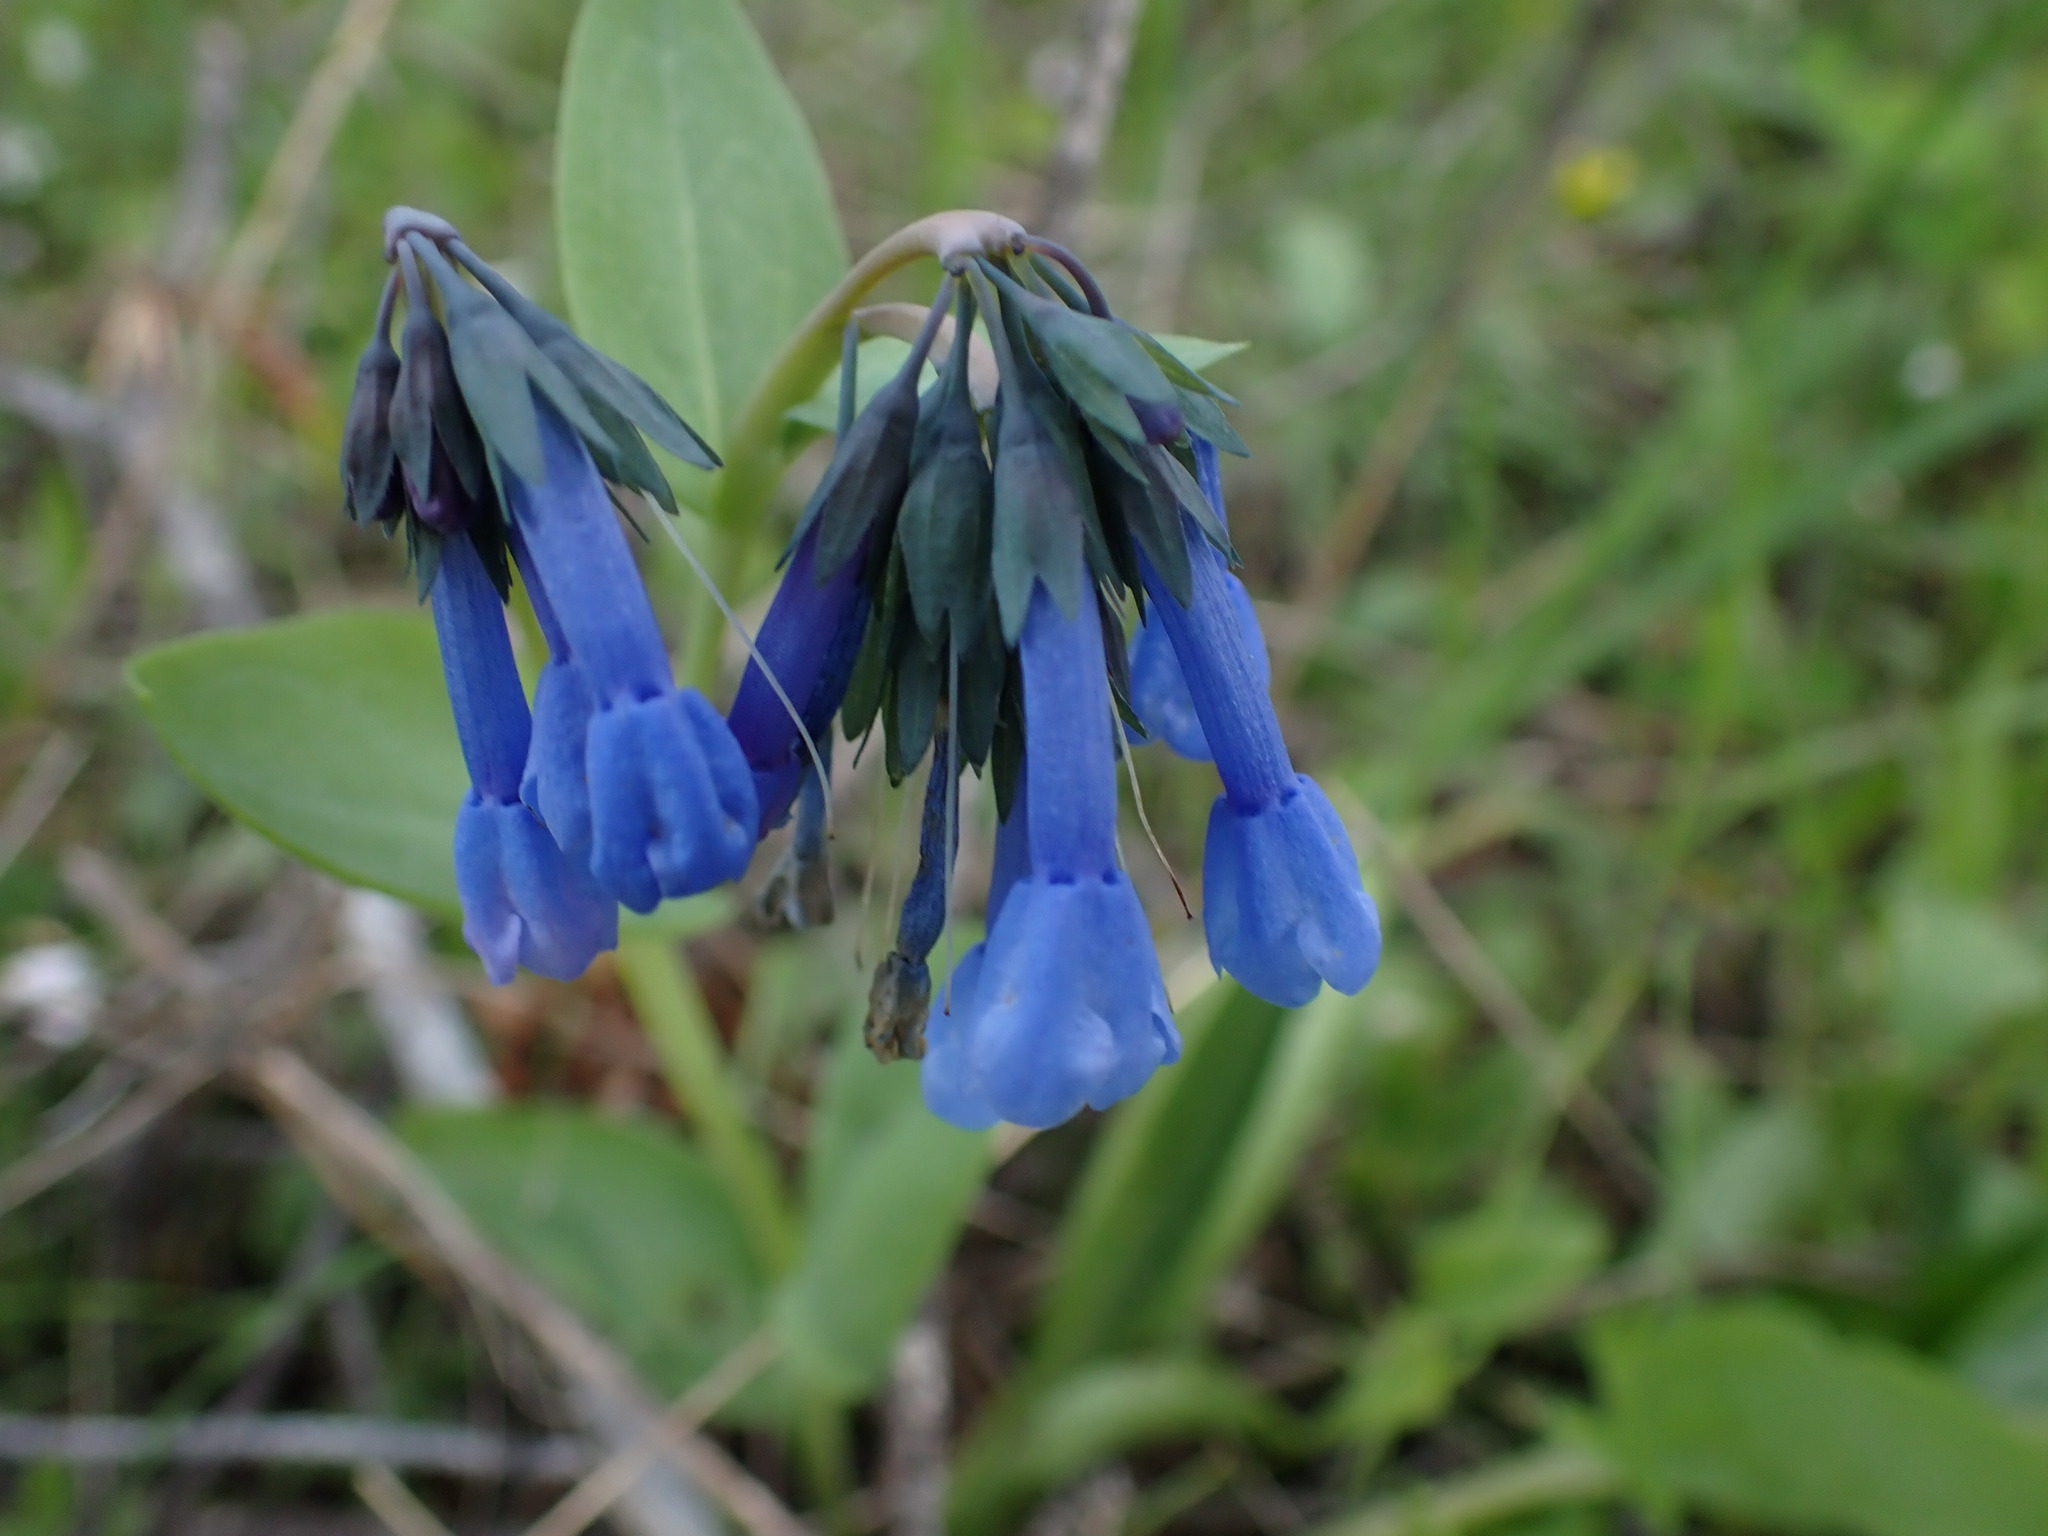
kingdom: Plantae
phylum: Tracheophyta
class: Magnoliopsida
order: Boraginales
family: Boraginaceae
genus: Mertensia
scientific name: Mertensia longiflora
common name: Large-flowered bluebells
